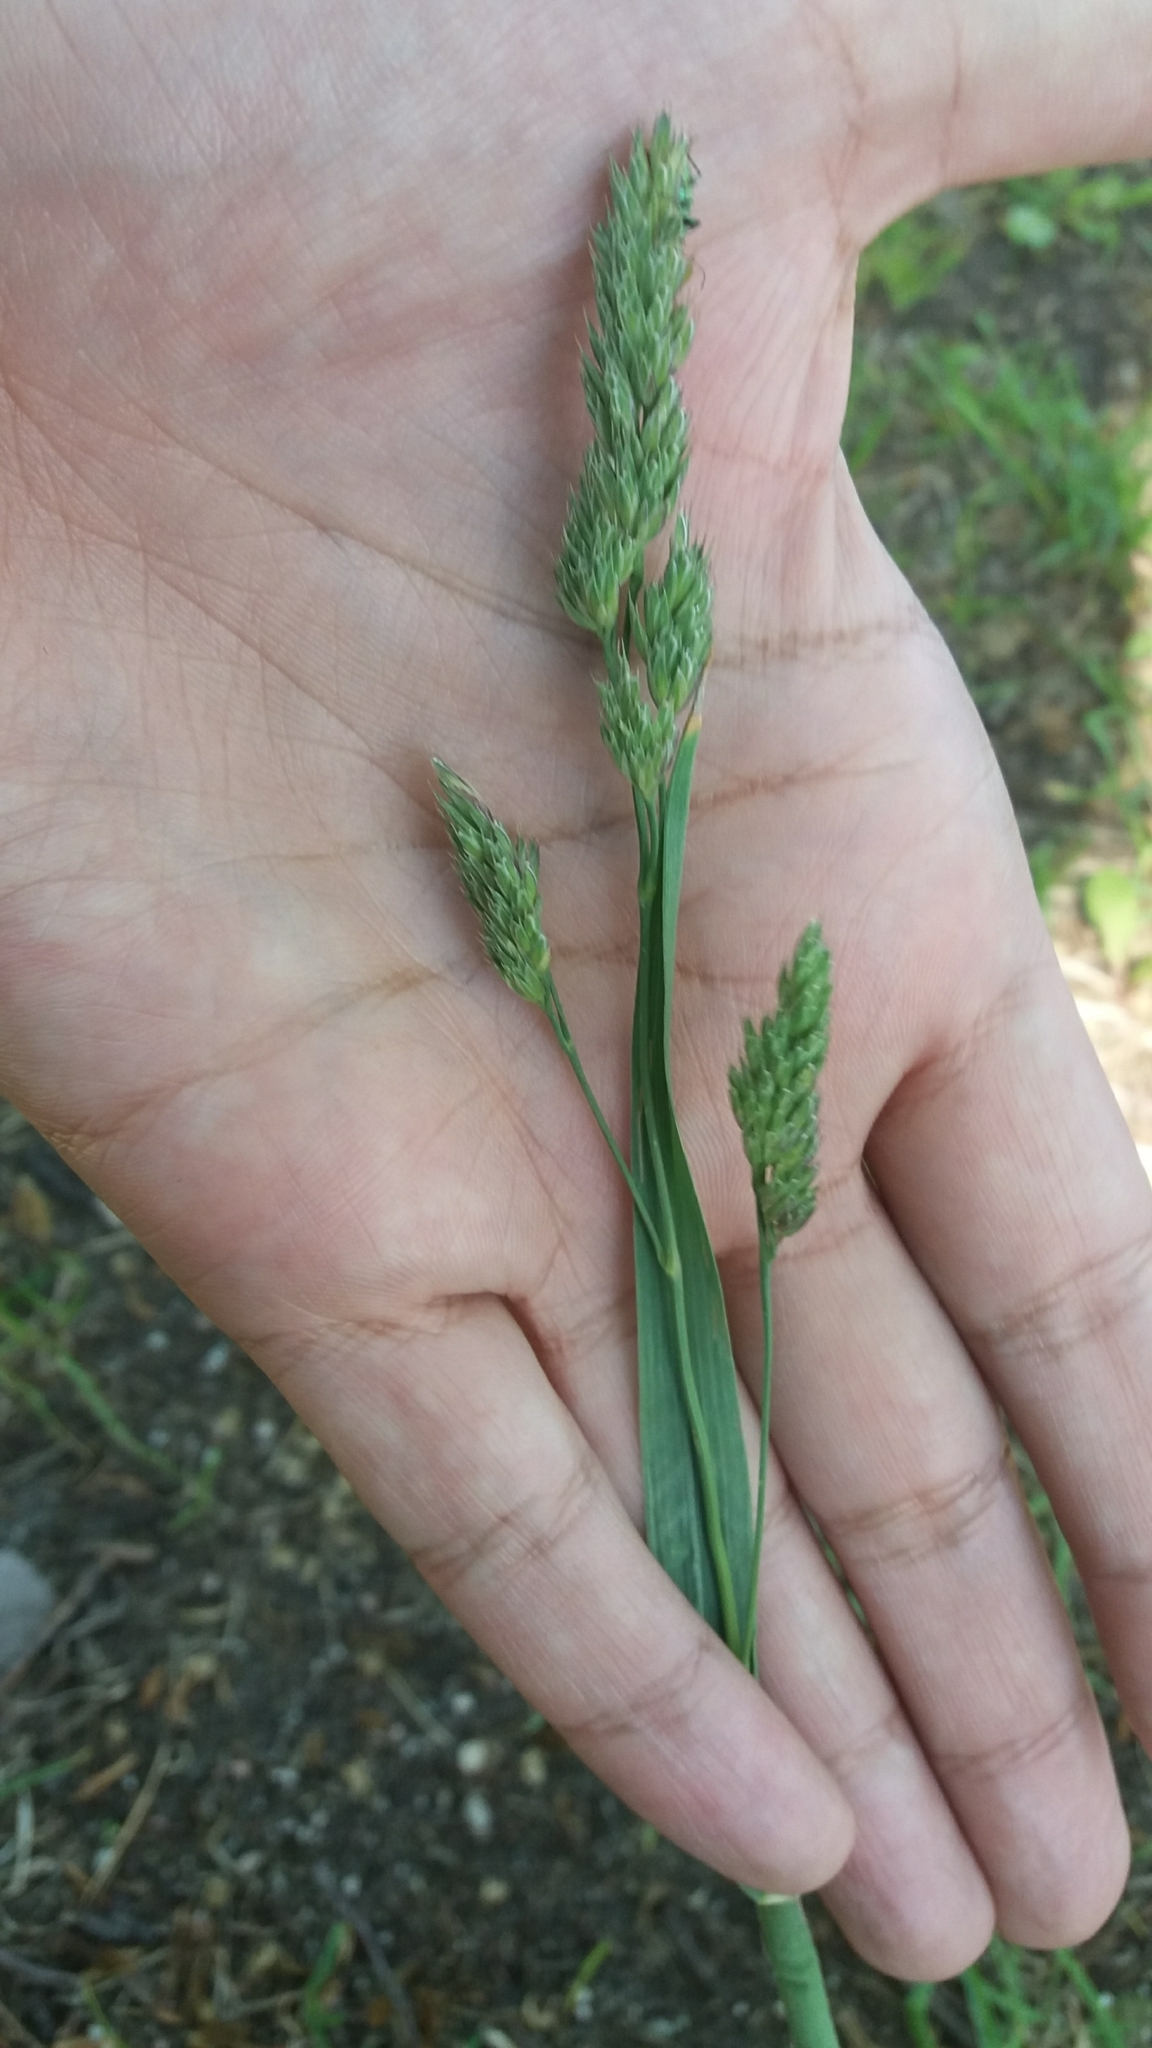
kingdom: Plantae
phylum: Tracheophyta
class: Liliopsida
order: Poales
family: Poaceae
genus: Dactylis
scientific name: Dactylis glomerata
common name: Orchardgrass
